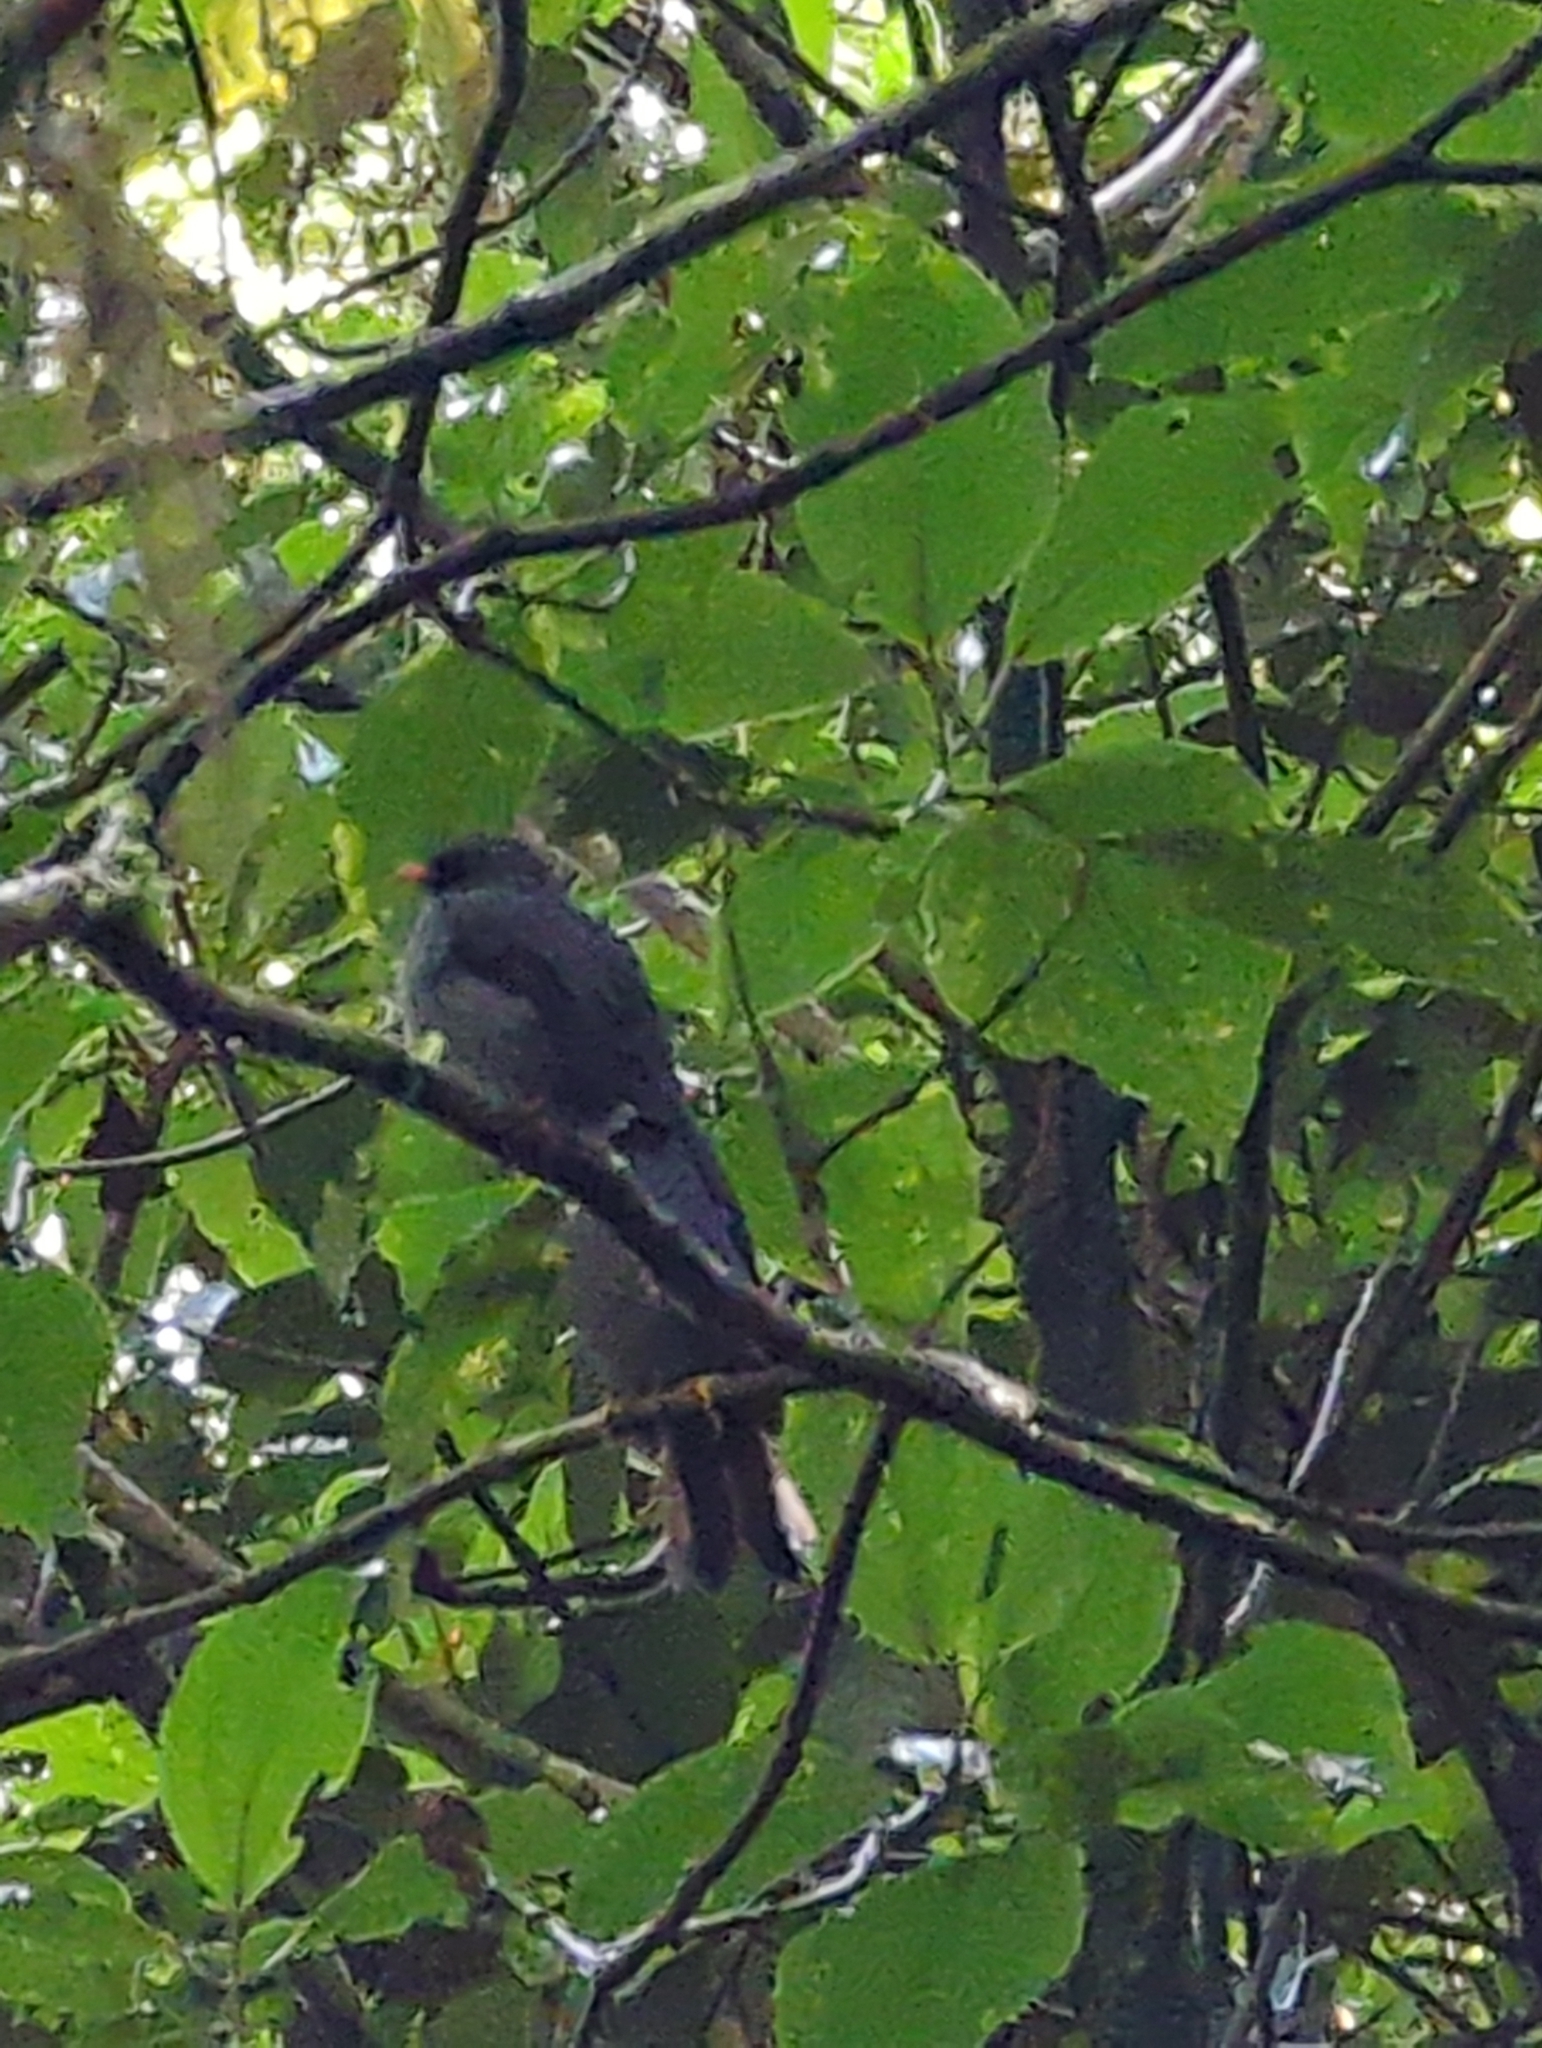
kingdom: Animalia
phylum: Chordata
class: Aves
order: Passeriformes
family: Turdidae
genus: Myadestes
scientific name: Myadestes melanops
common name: Black-faced solitaire
